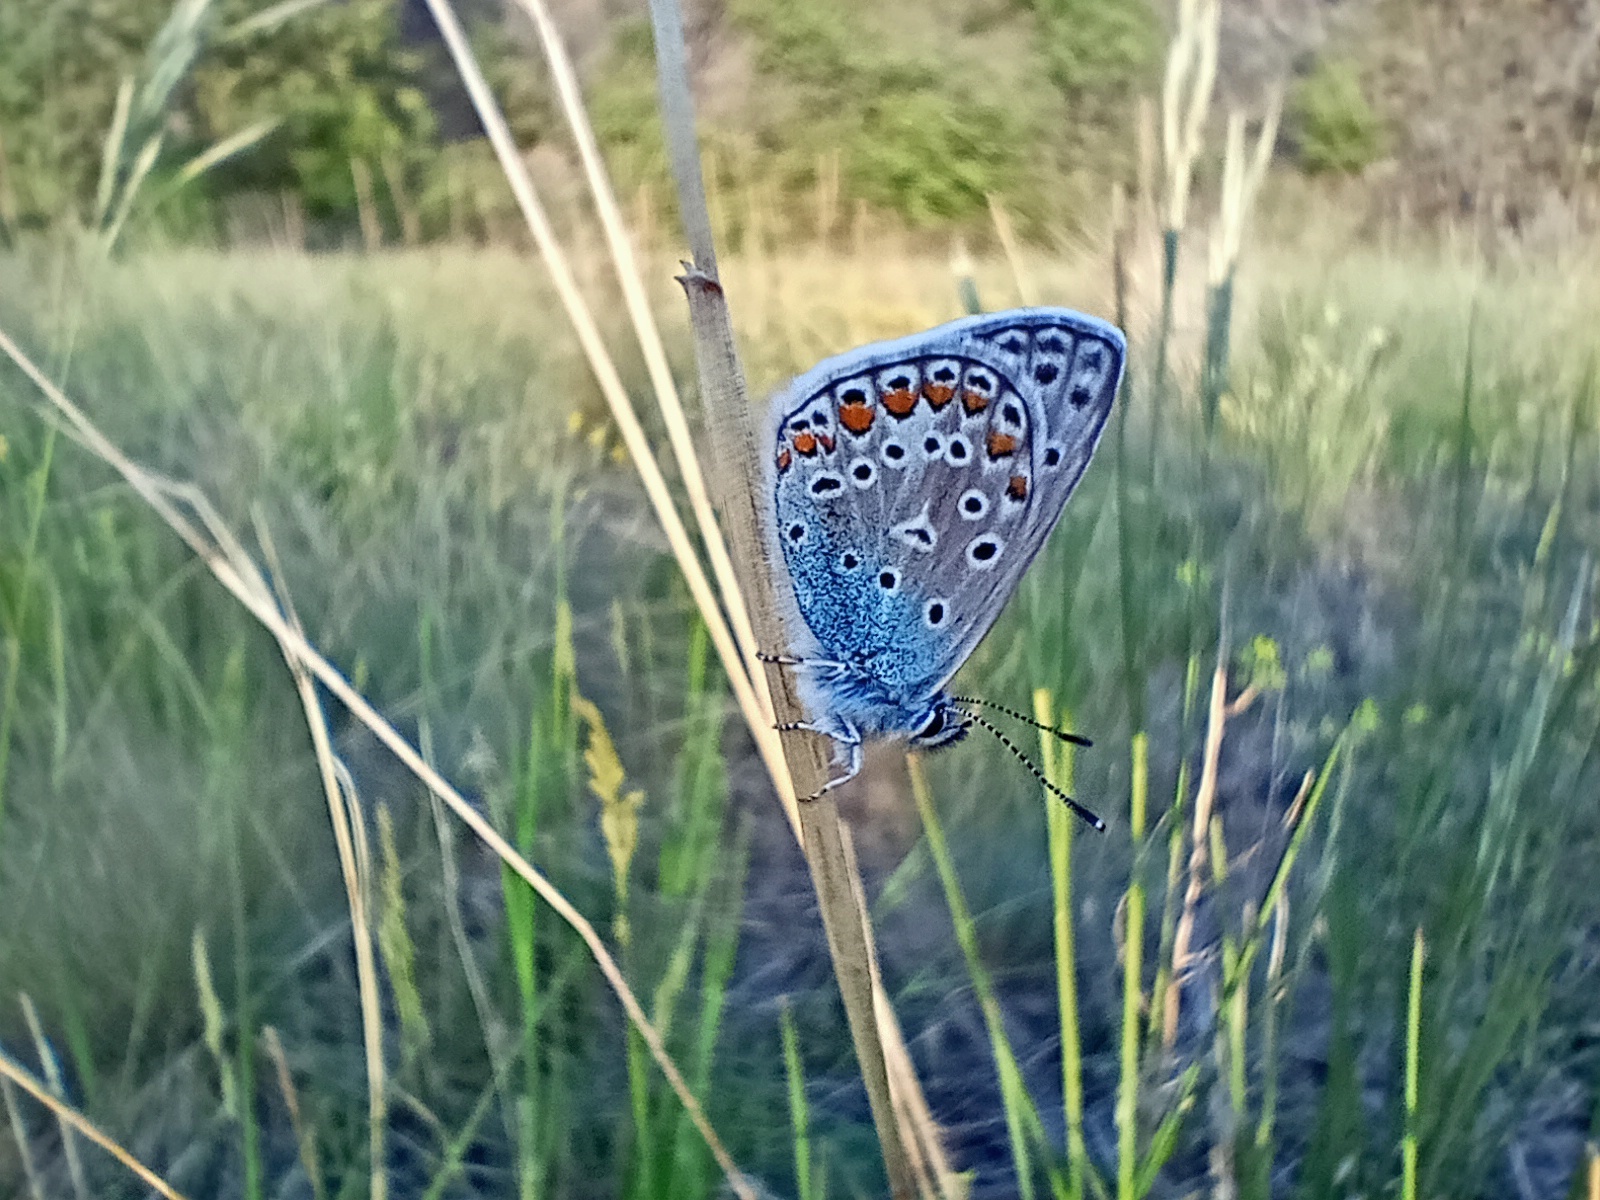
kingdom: Animalia
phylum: Arthropoda
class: Insecta
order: Lepidoptera
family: Lycaenidae
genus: Polyommatus
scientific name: Polyommatus icarus
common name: Common blue
